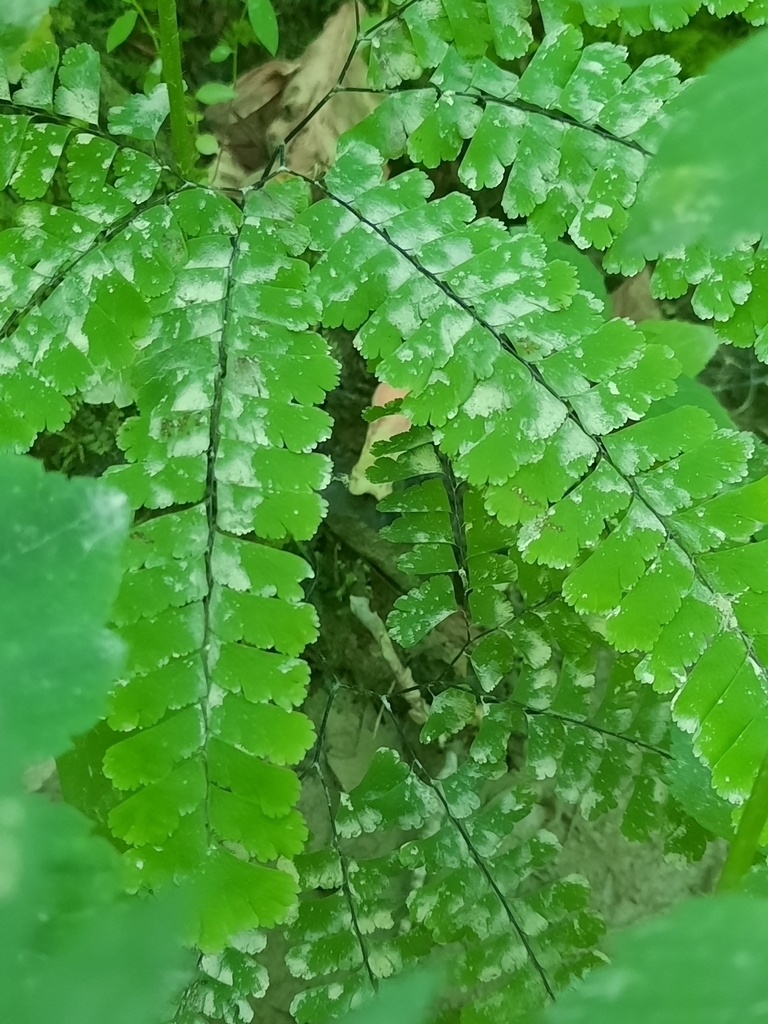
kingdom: Plantae
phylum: Tracheophyta
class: Polypodiopsida
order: Polypodiales
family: Pteridaceae
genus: Adiantum
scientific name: Adiantum pedatum
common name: Five-finger fern
